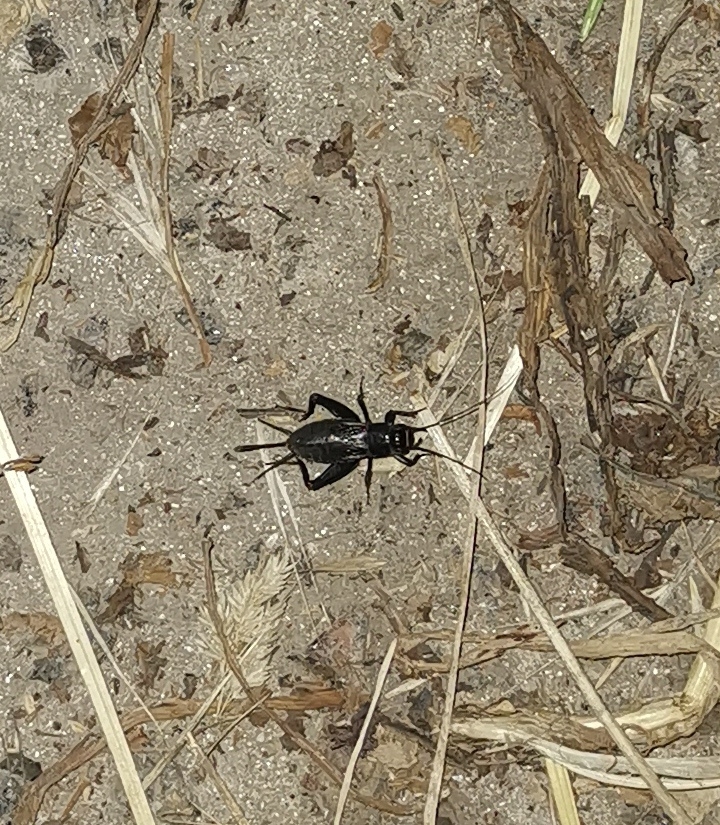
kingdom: Animalia
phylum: Arthropoda
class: Insecta
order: Orthoptera
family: Gryllidae
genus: Modicogryllus
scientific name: Modicogryllus frontalis
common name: Eastern cricket
